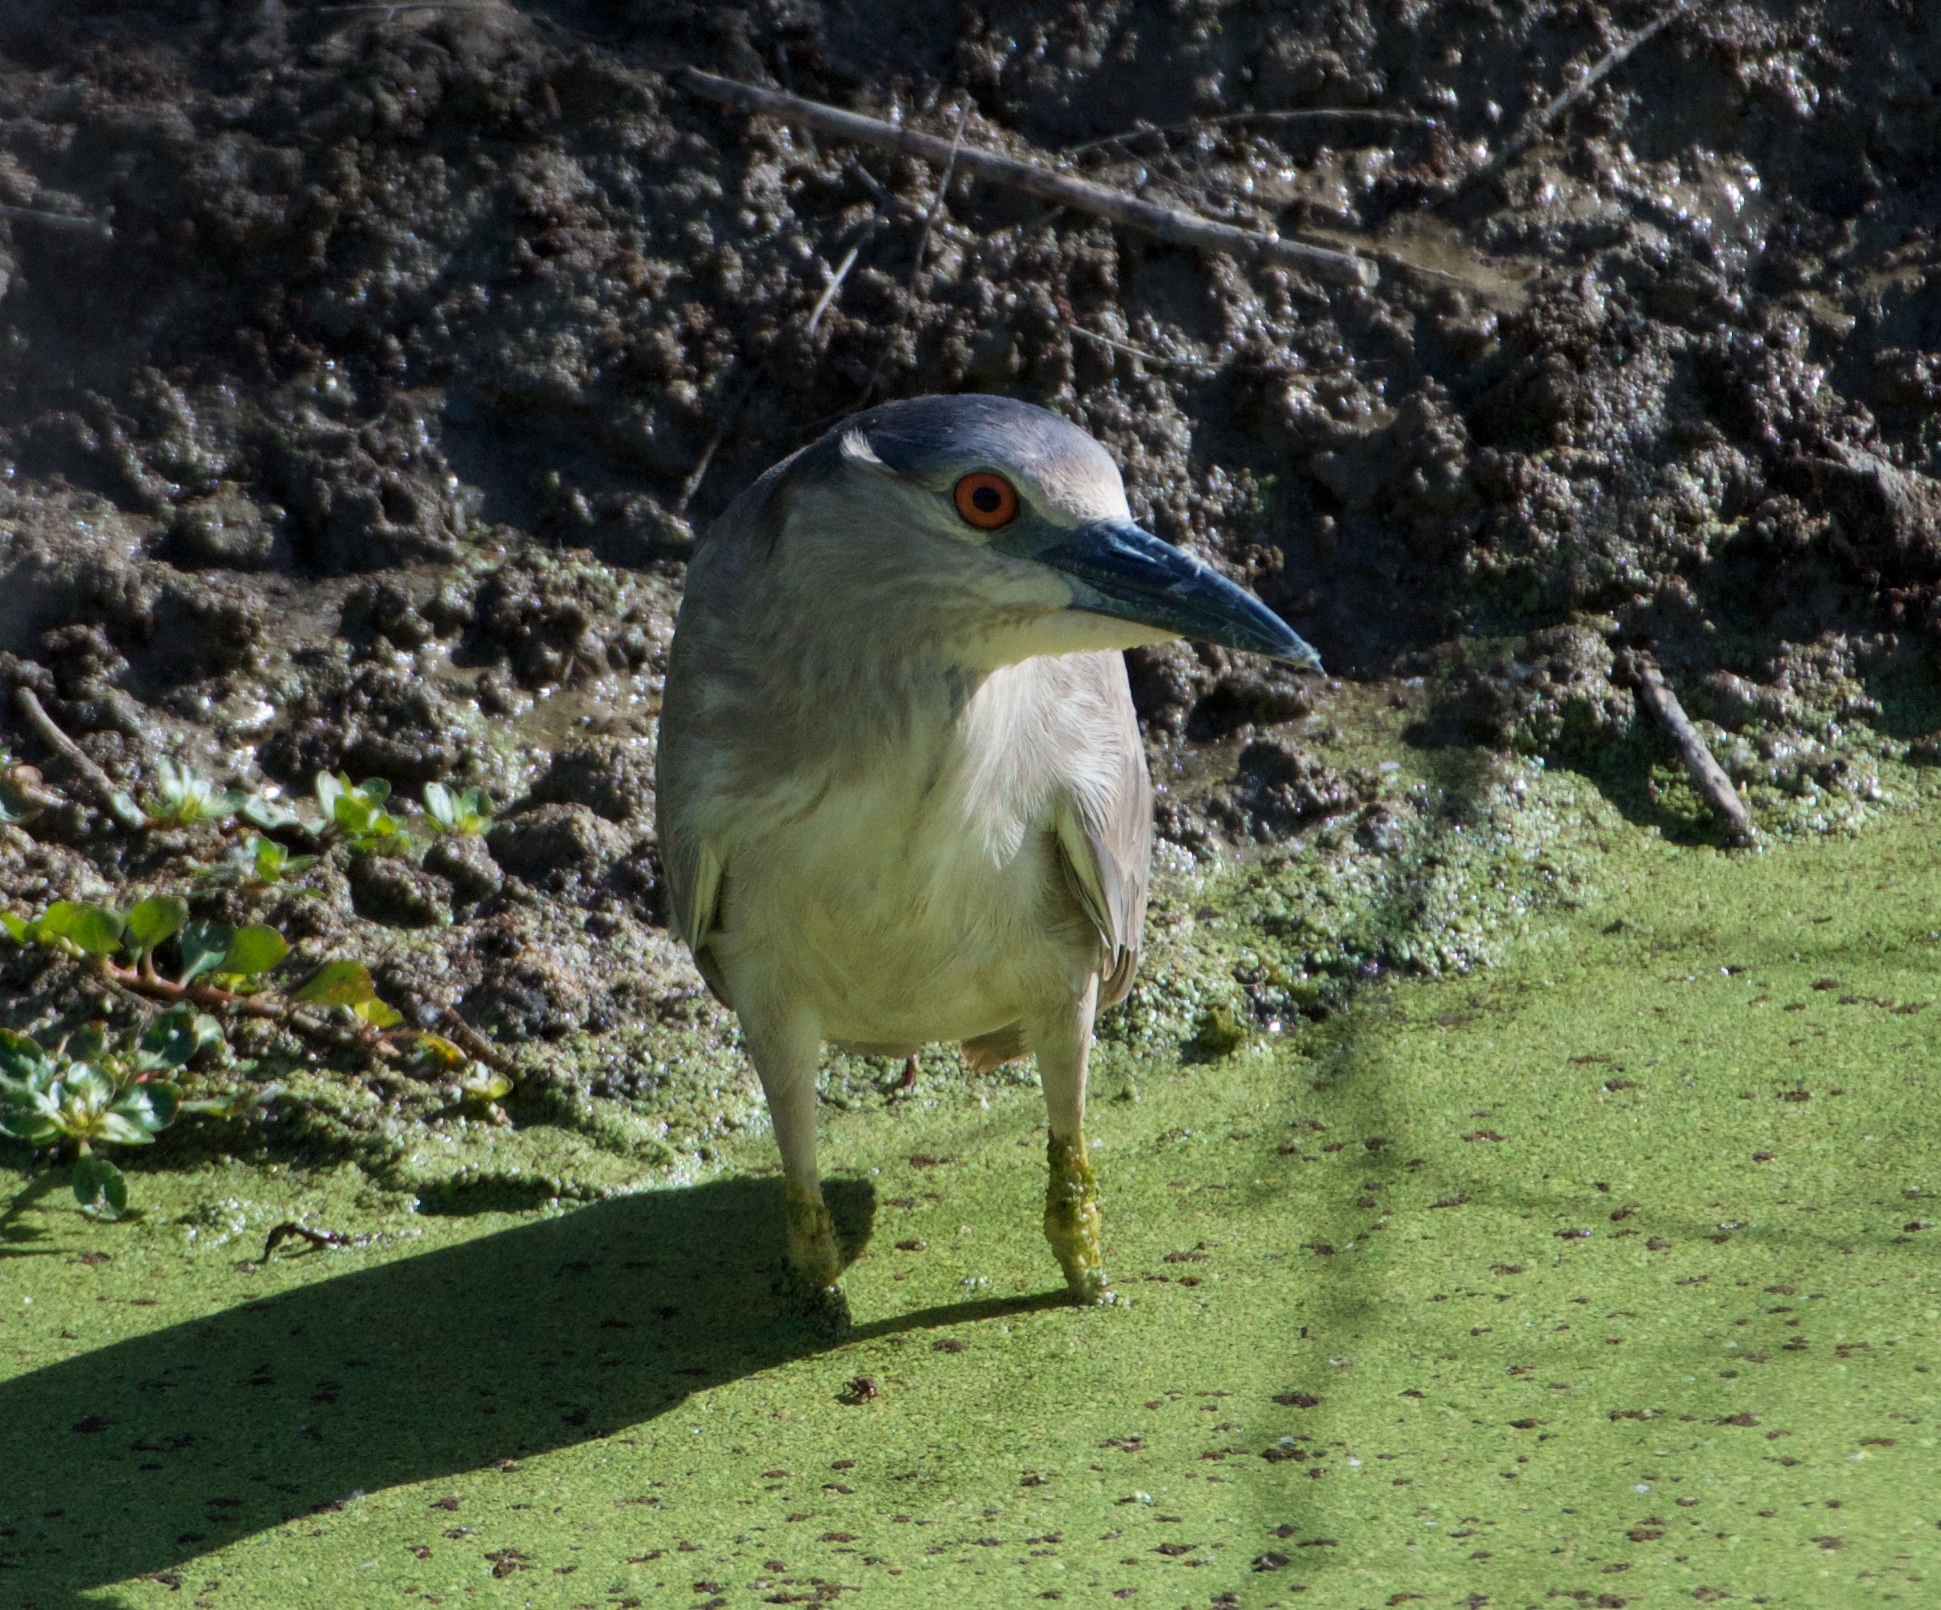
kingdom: Animalia
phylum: Chordata
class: Aves
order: Pelecaniformes
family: Ardeidae
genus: Nycticorax
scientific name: Nycticorax nycticorax
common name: Black-crowned night heron
